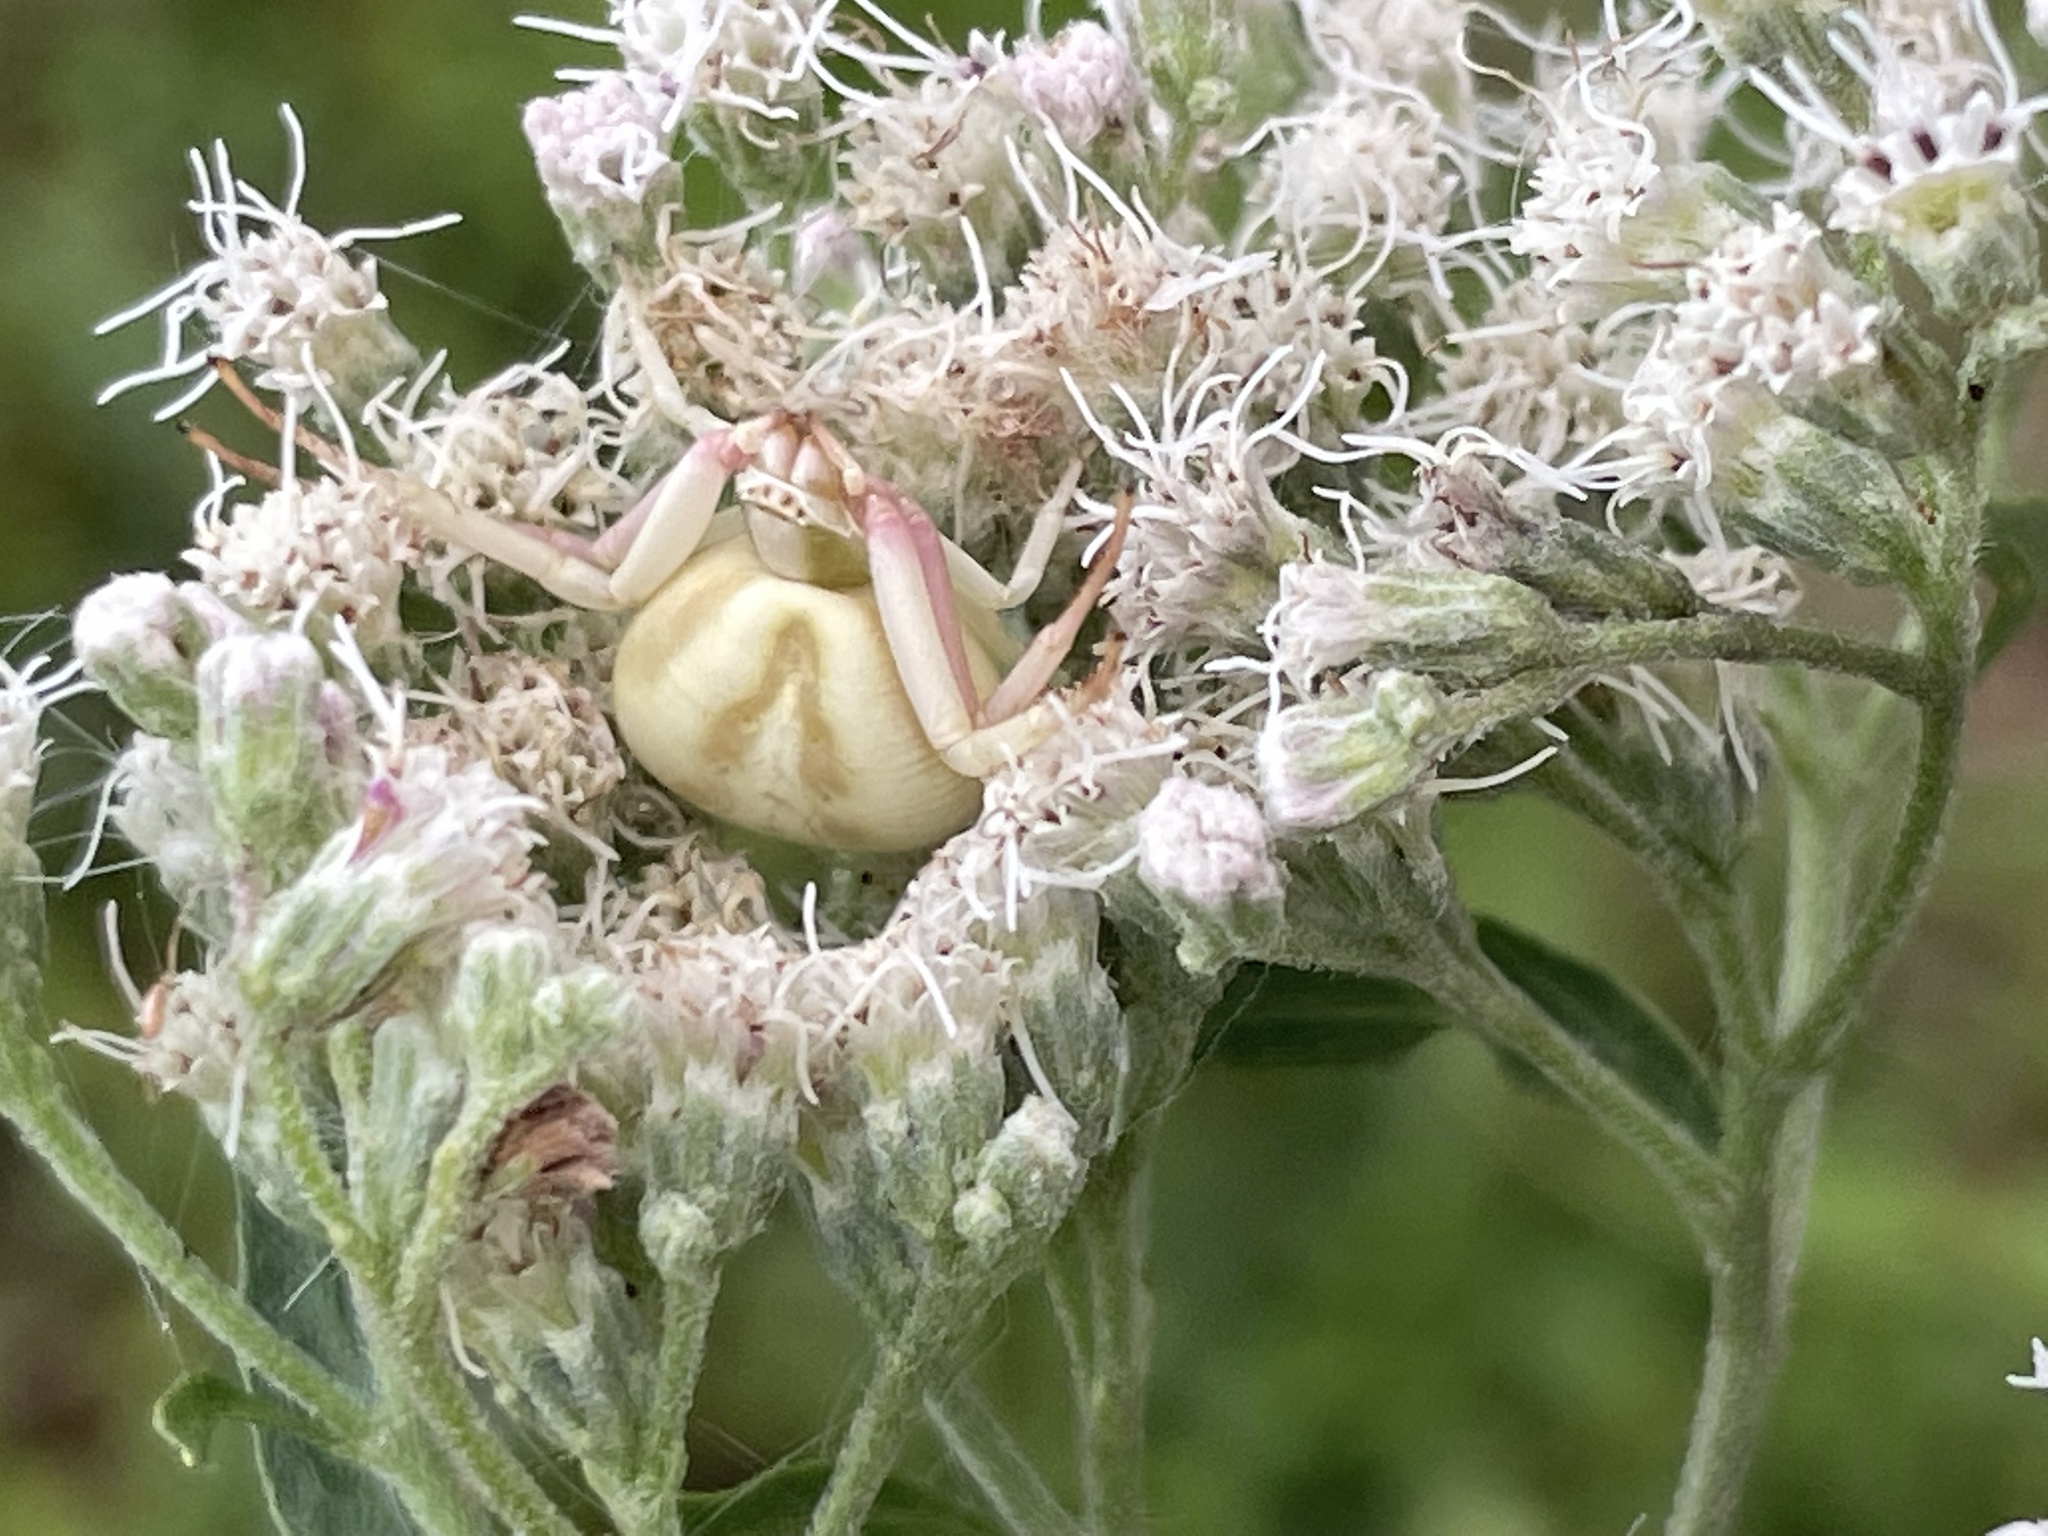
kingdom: Animalia
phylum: Arthropoda
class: Arachnida
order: Araneae
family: Thomisidae
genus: Misumenoides
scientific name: Misumenoides formosipes
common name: White-banded crab spider
